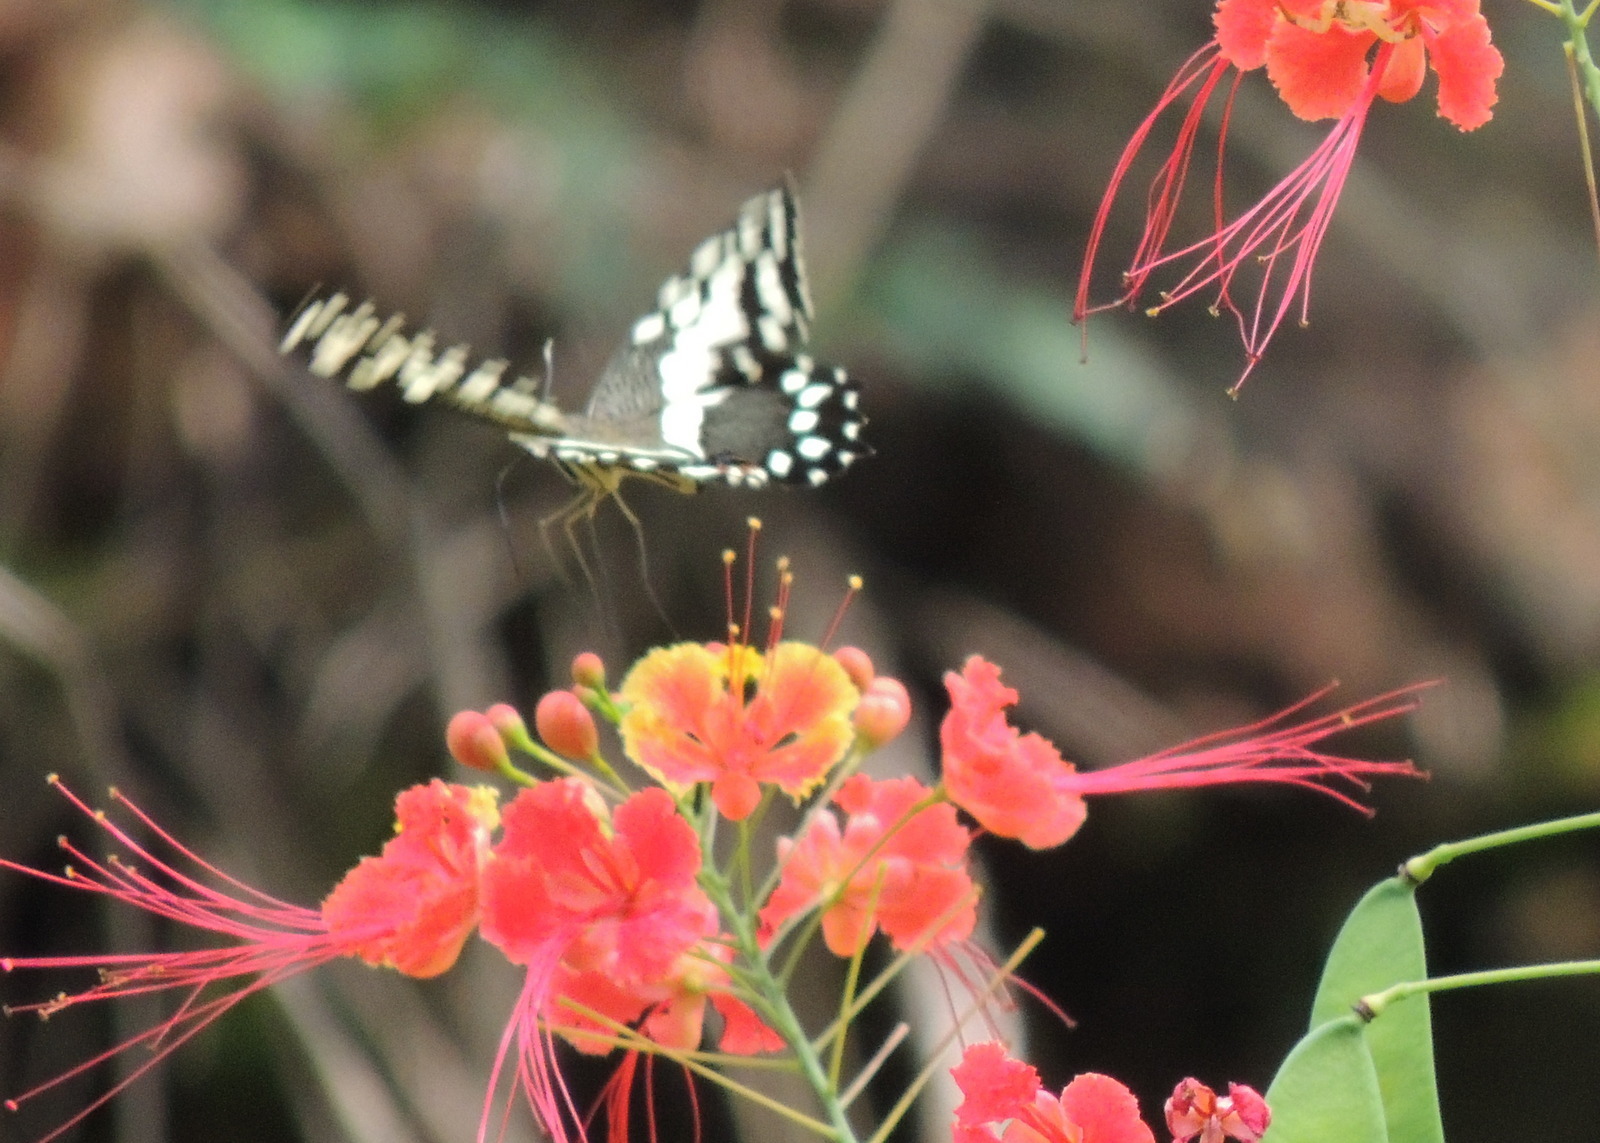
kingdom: Animalia
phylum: Arthropoda
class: Insecta
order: Lepidoptera
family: Papilionidae
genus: Papilio
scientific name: Papilio demodocus
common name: Christmas butterfly
